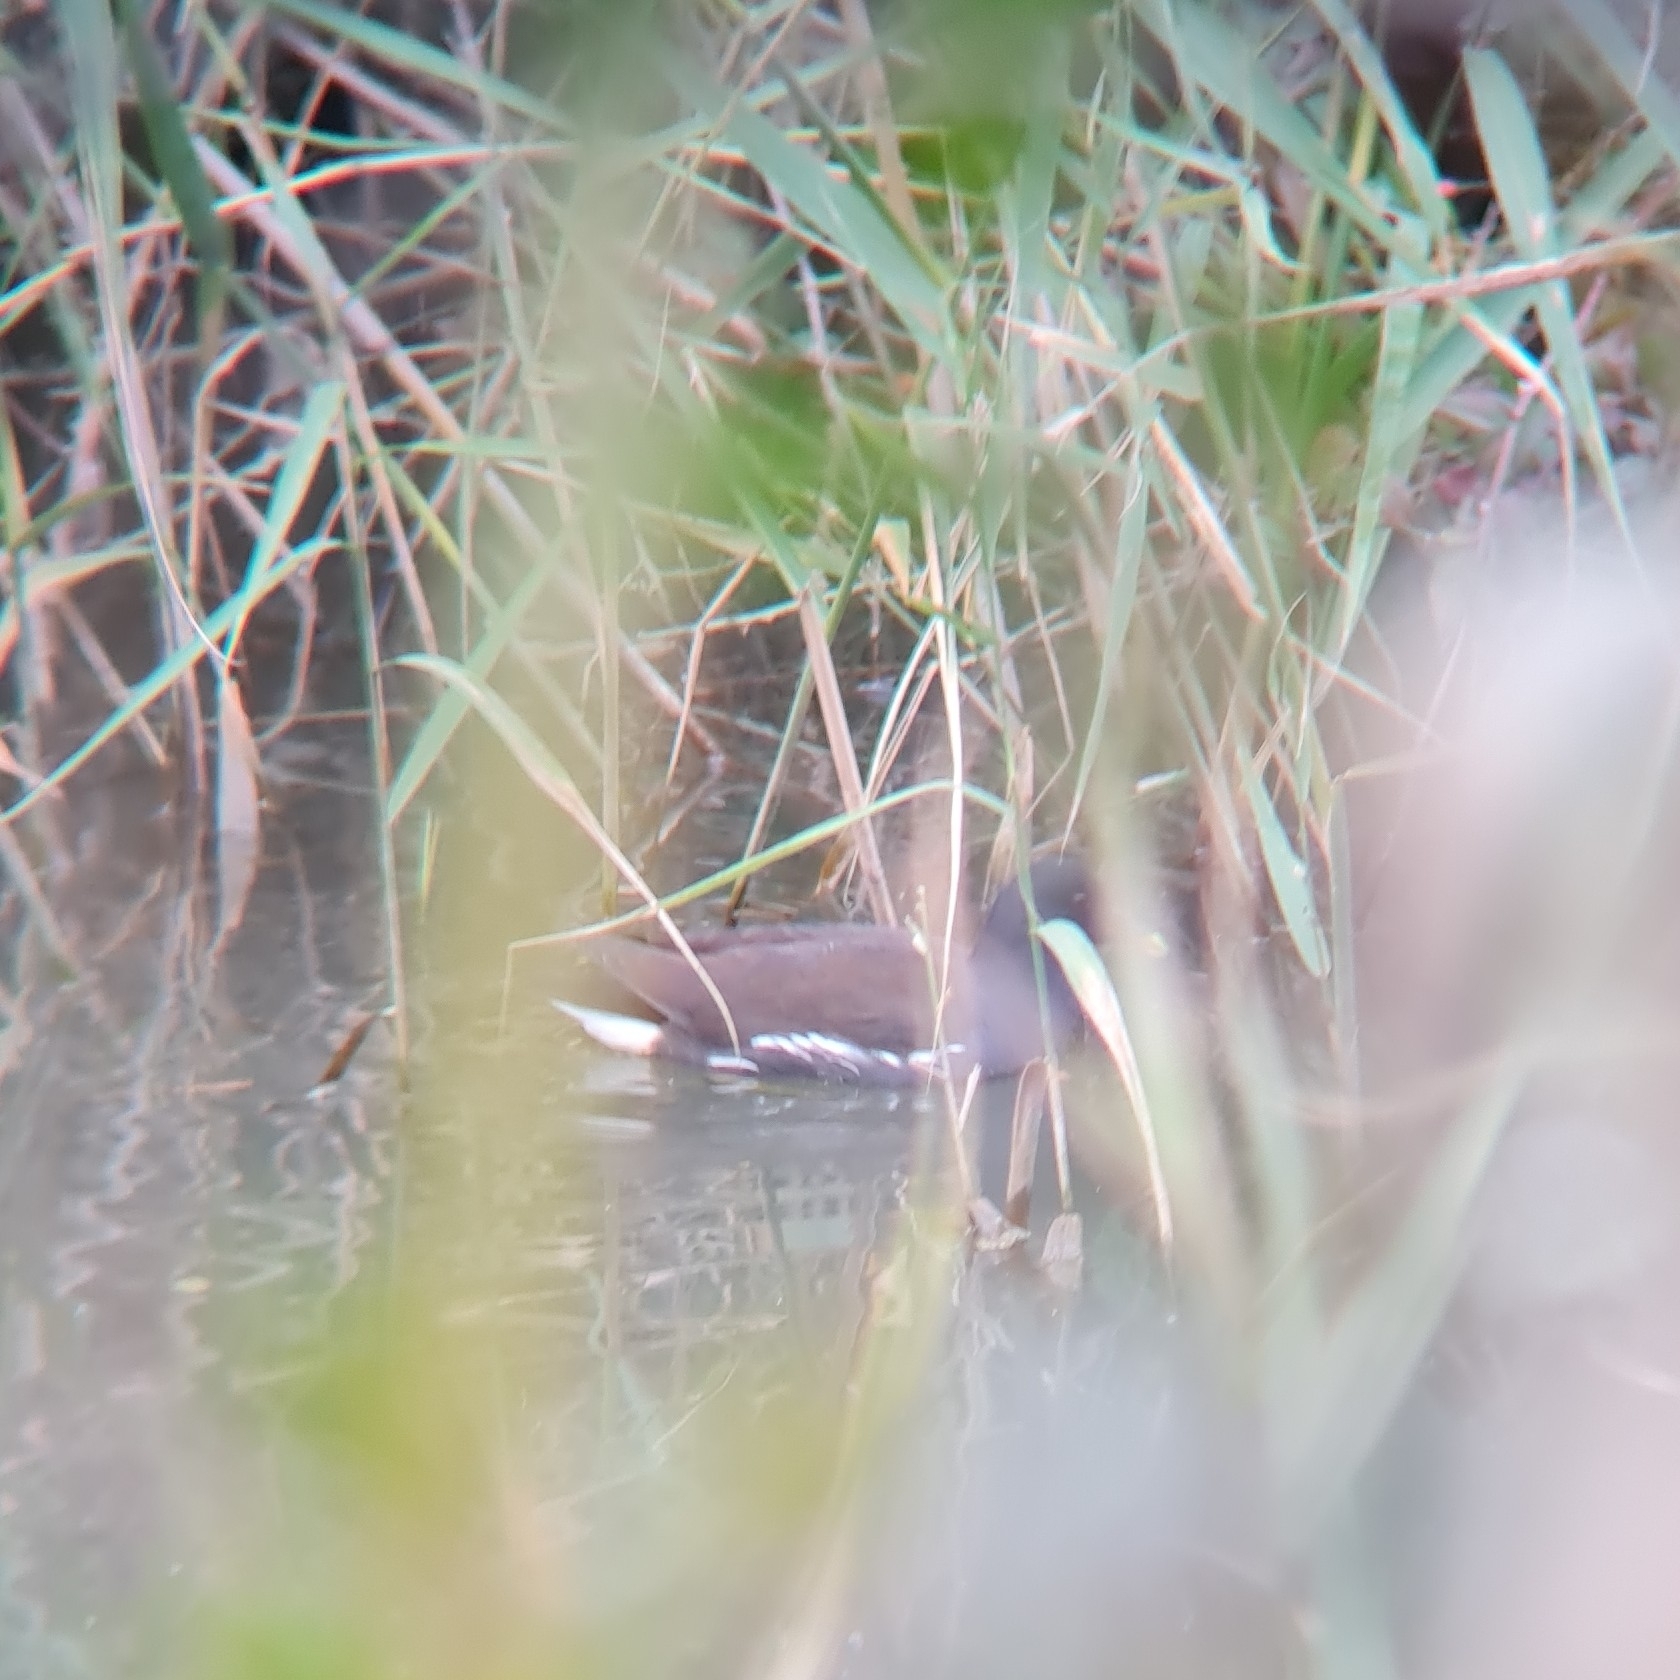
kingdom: Animalia
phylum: Chordata
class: Aves
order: Gruiformes
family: Rallidae
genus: Gallinula
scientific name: Gallinula chloropus
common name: Common moorhen
